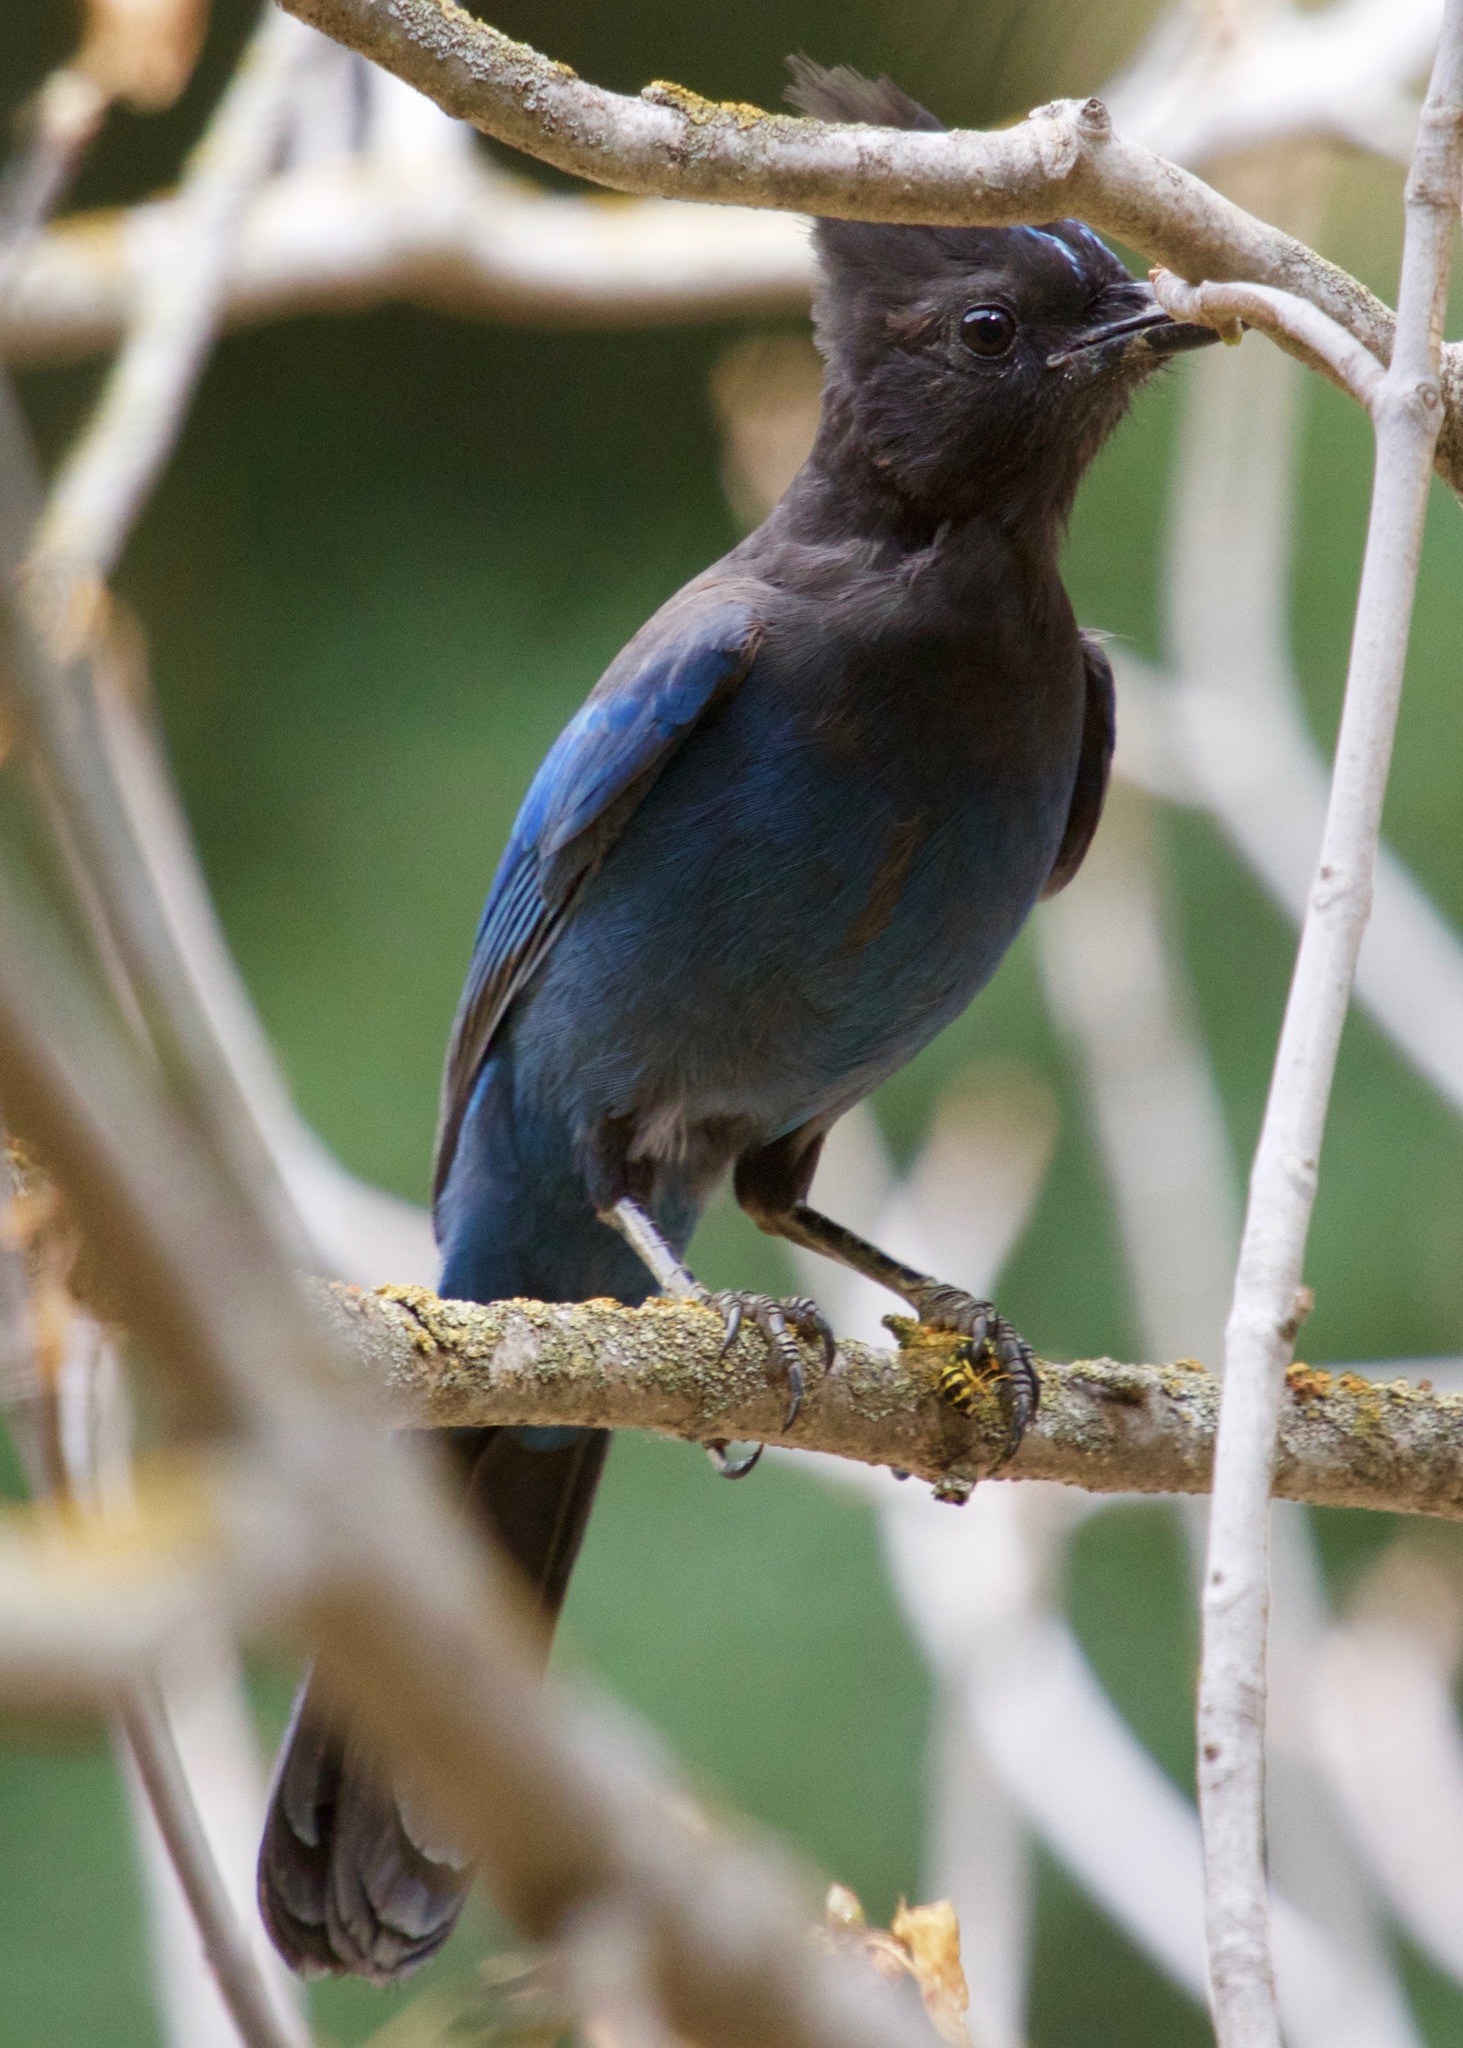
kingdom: Animalia
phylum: Chordata
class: Aves
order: Passeriformes
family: Corvidae
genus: Cyanocitta
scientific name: Cyanocitta stelleri
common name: Steller's jay
